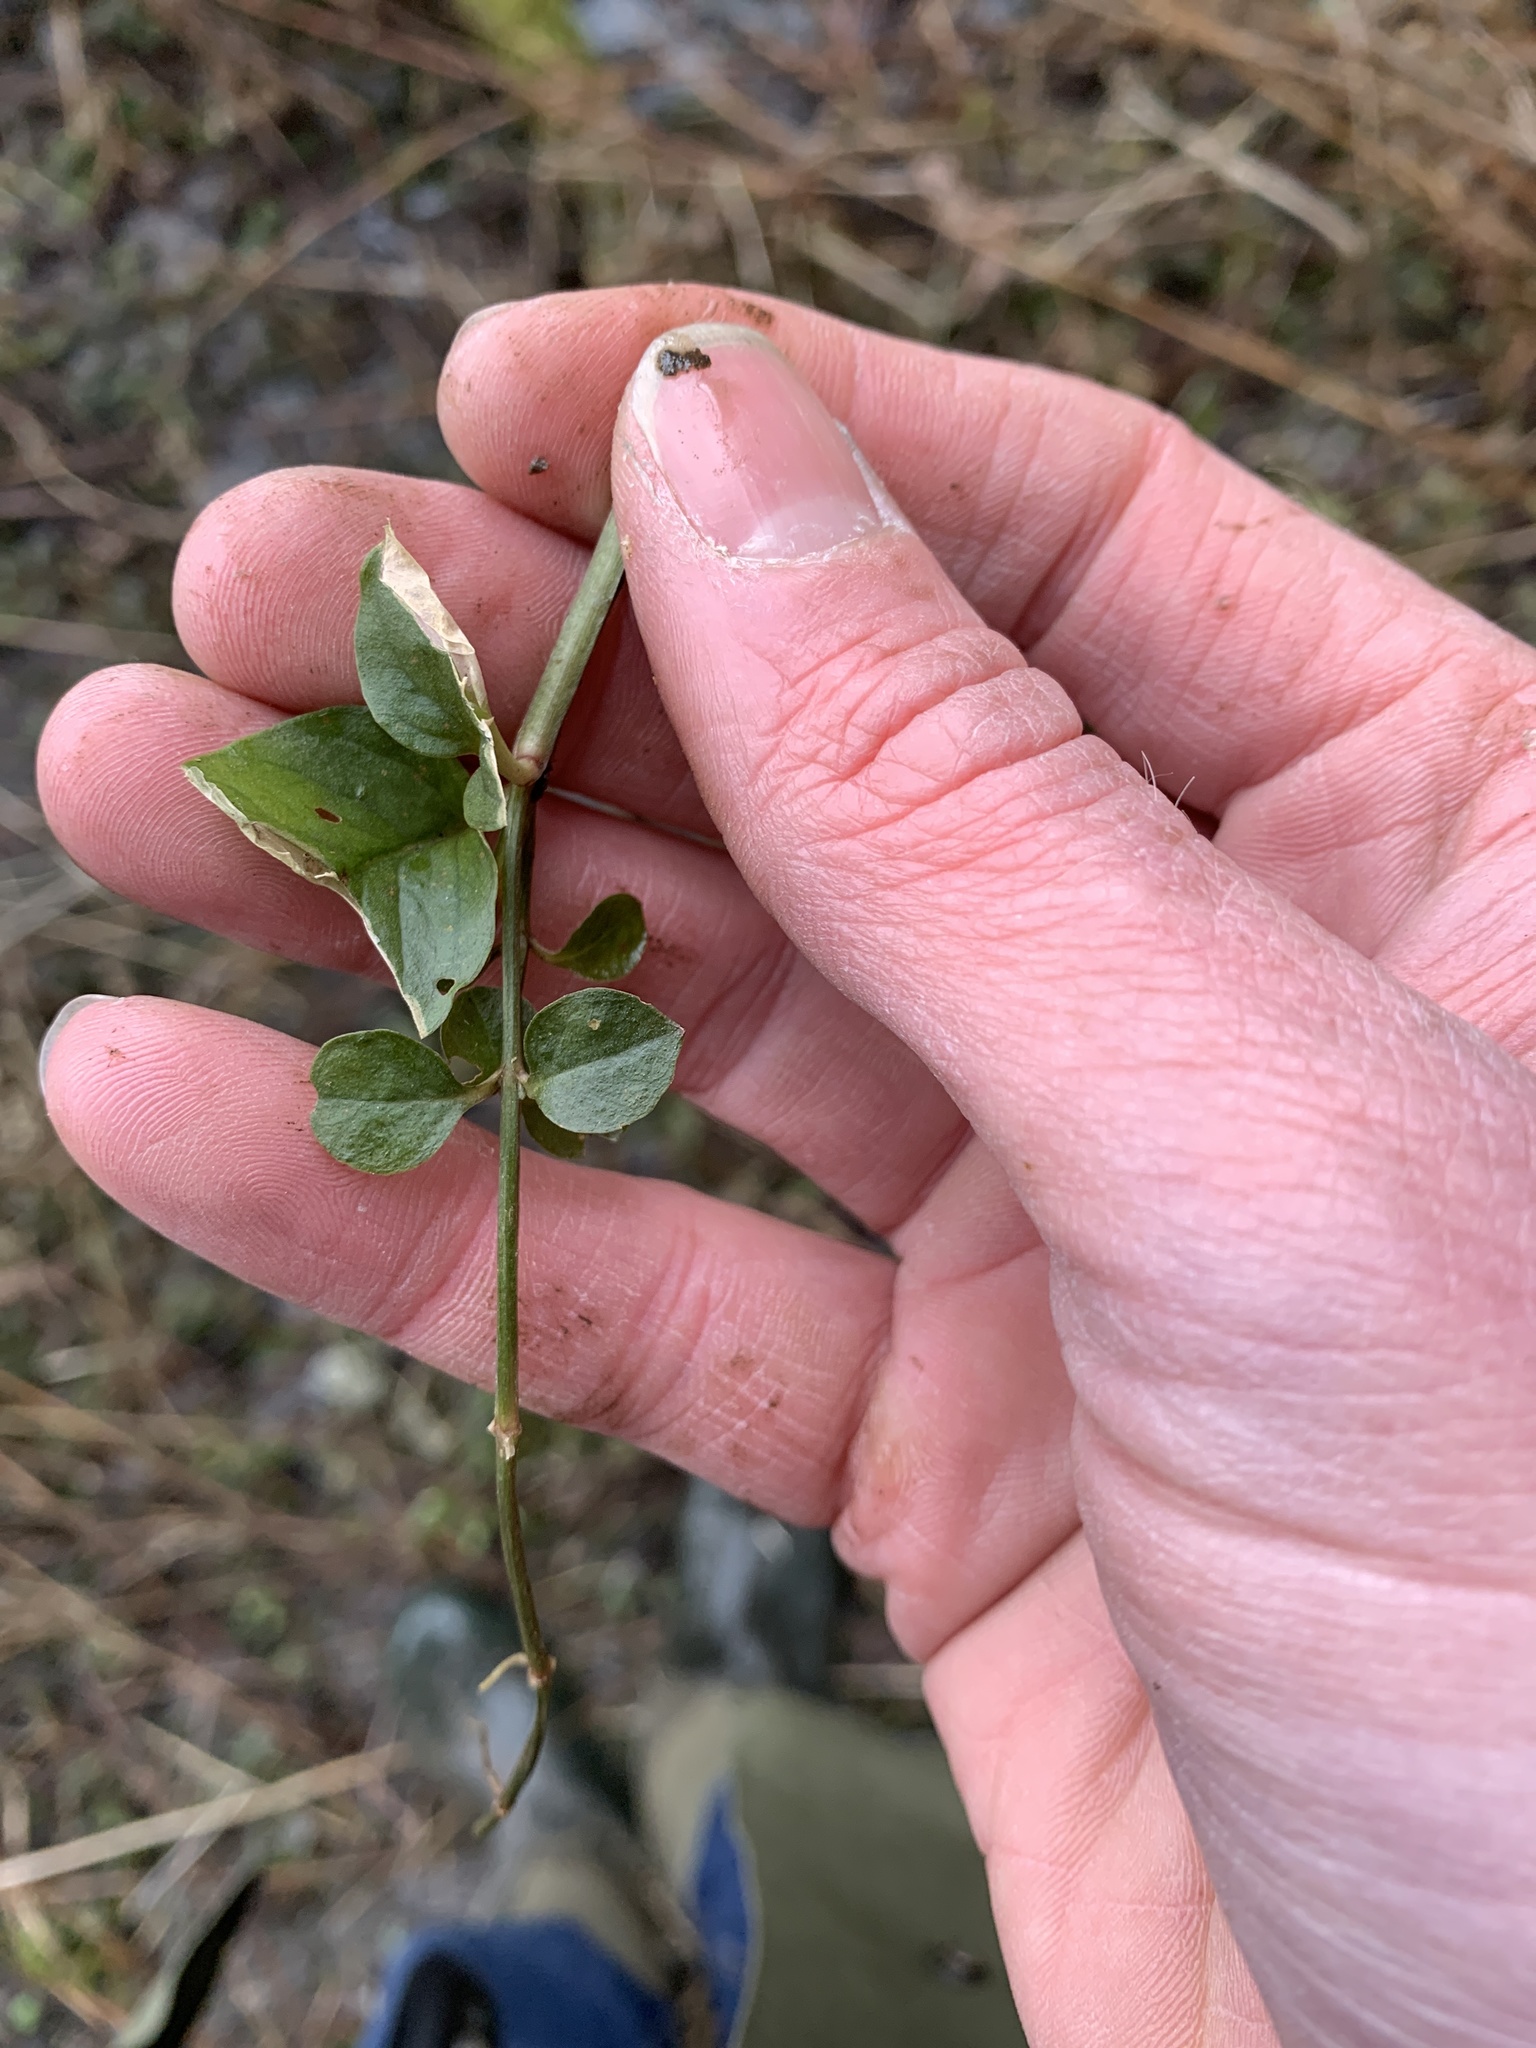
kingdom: Plantae
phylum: Tracheophyta
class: Magnoliopsida
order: Ericales
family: Primulaceae
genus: Lysimachia
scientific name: Lysimachia nummularia
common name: Moneywort
